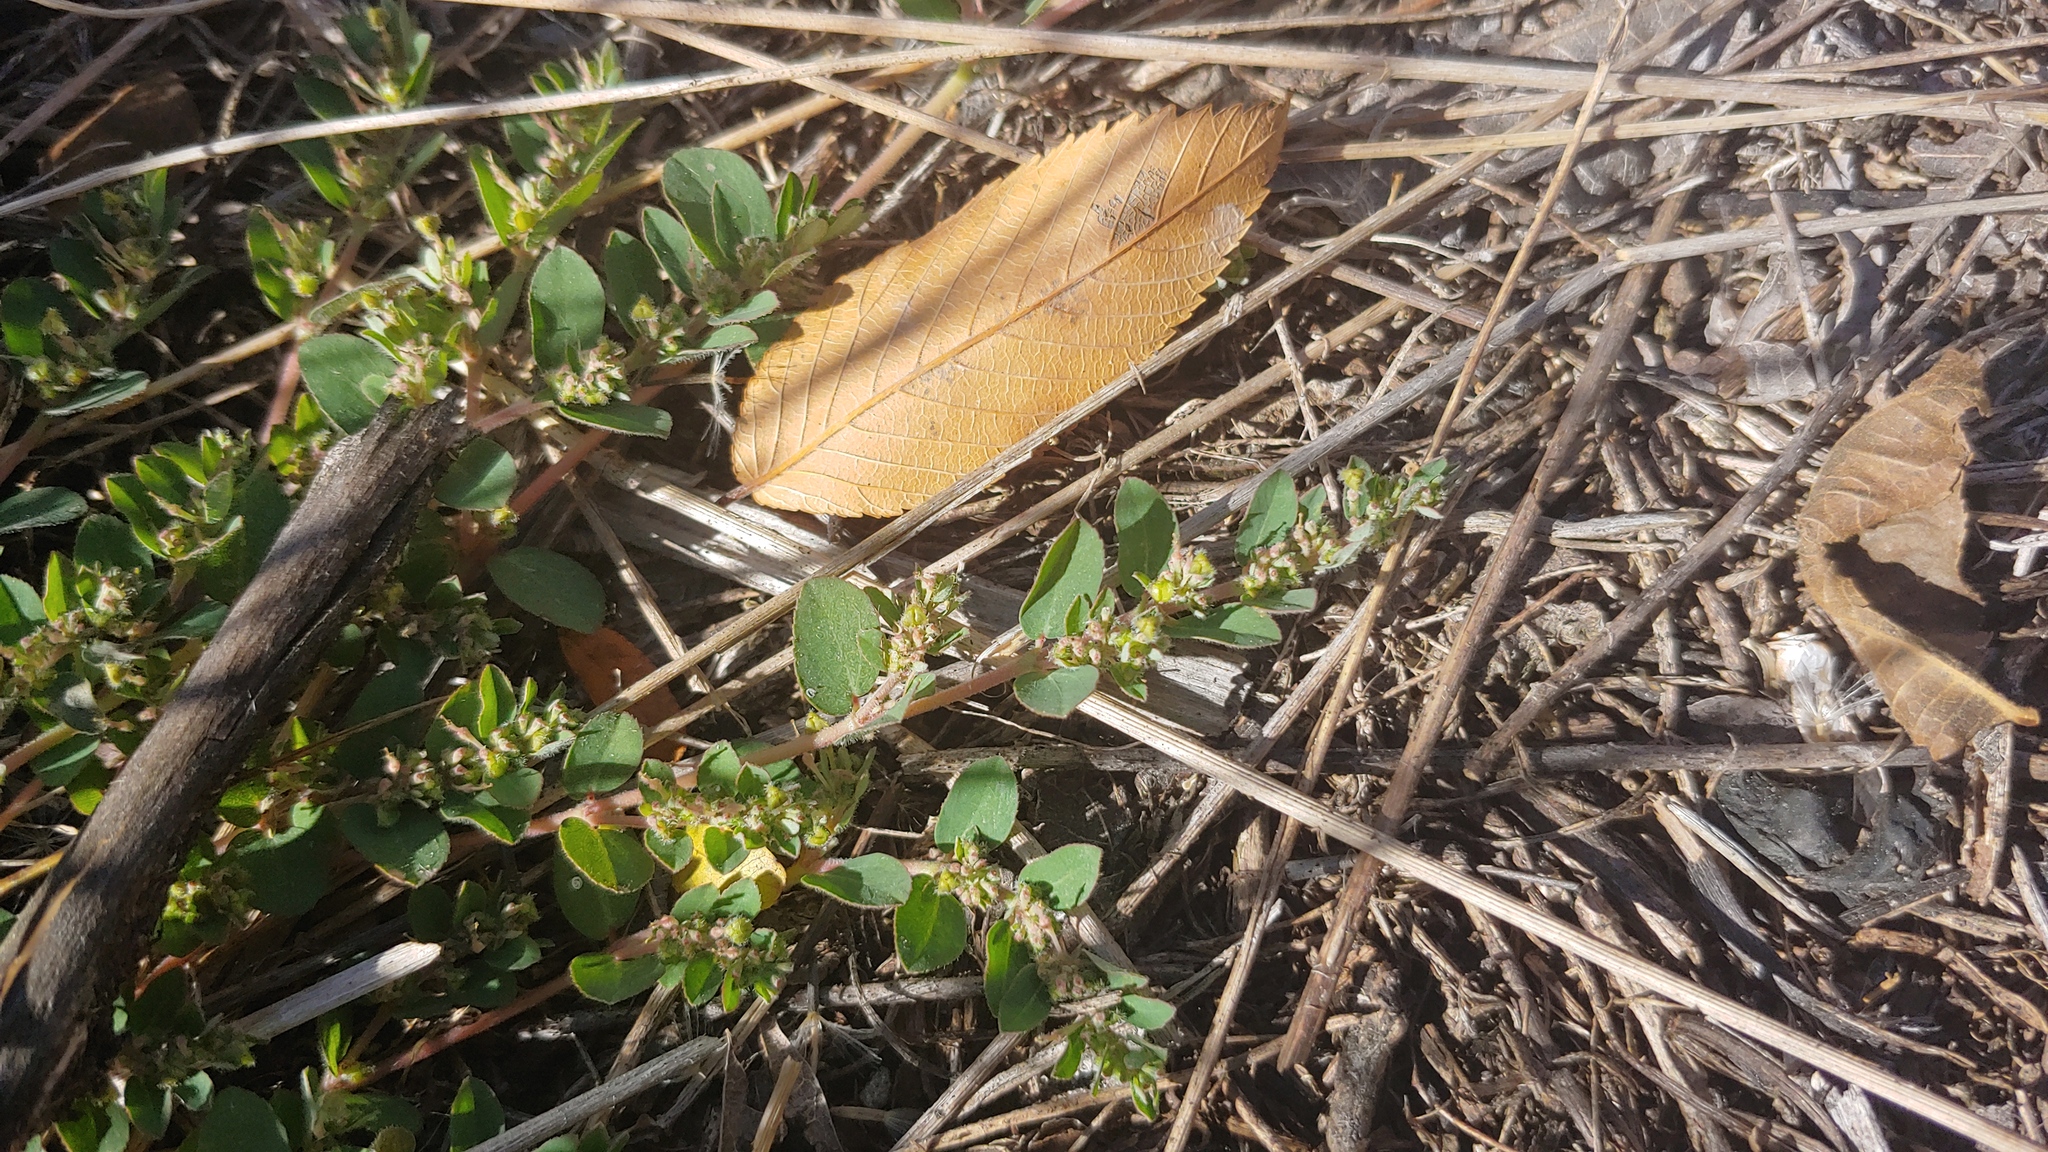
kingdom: Plantae
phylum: Tracheophyta
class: Magnoliopsida
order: Malpighiales
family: Euphorbiaceae
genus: Euphorbia
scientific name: Euphorbia prostrata
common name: Prostrate sandmat
